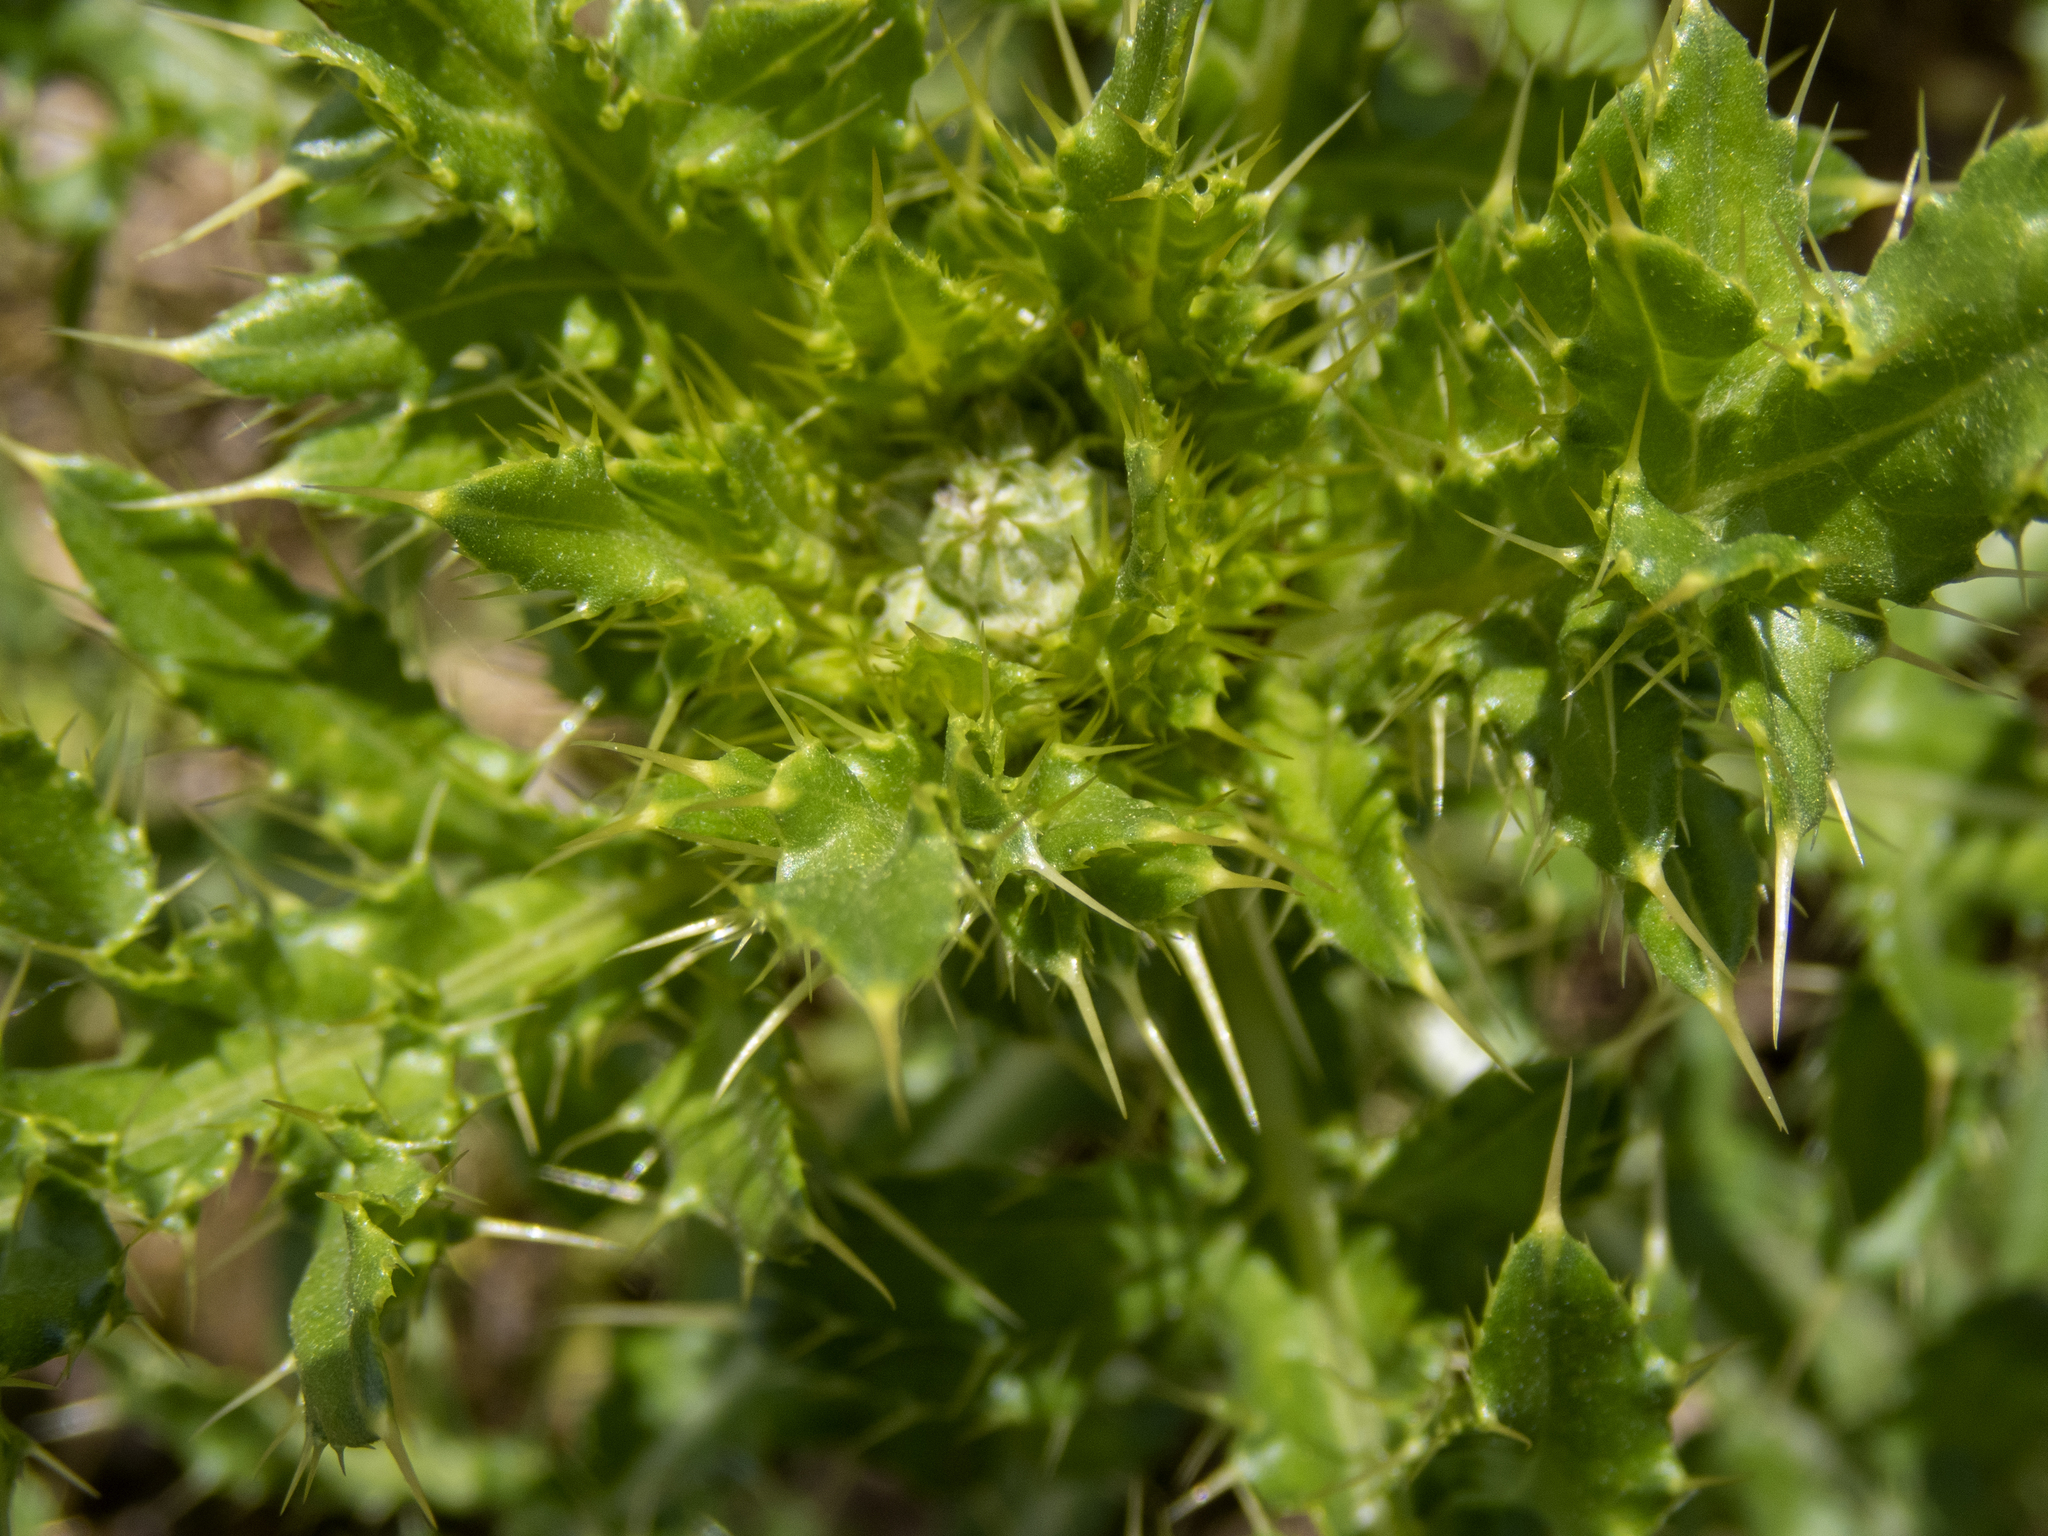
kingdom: Plantae
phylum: Tracheophyta
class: Magnoliopsida
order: Asterales
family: Asteraceae
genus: Cirsium
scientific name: Cirsium arvense
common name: Creeping thistle
